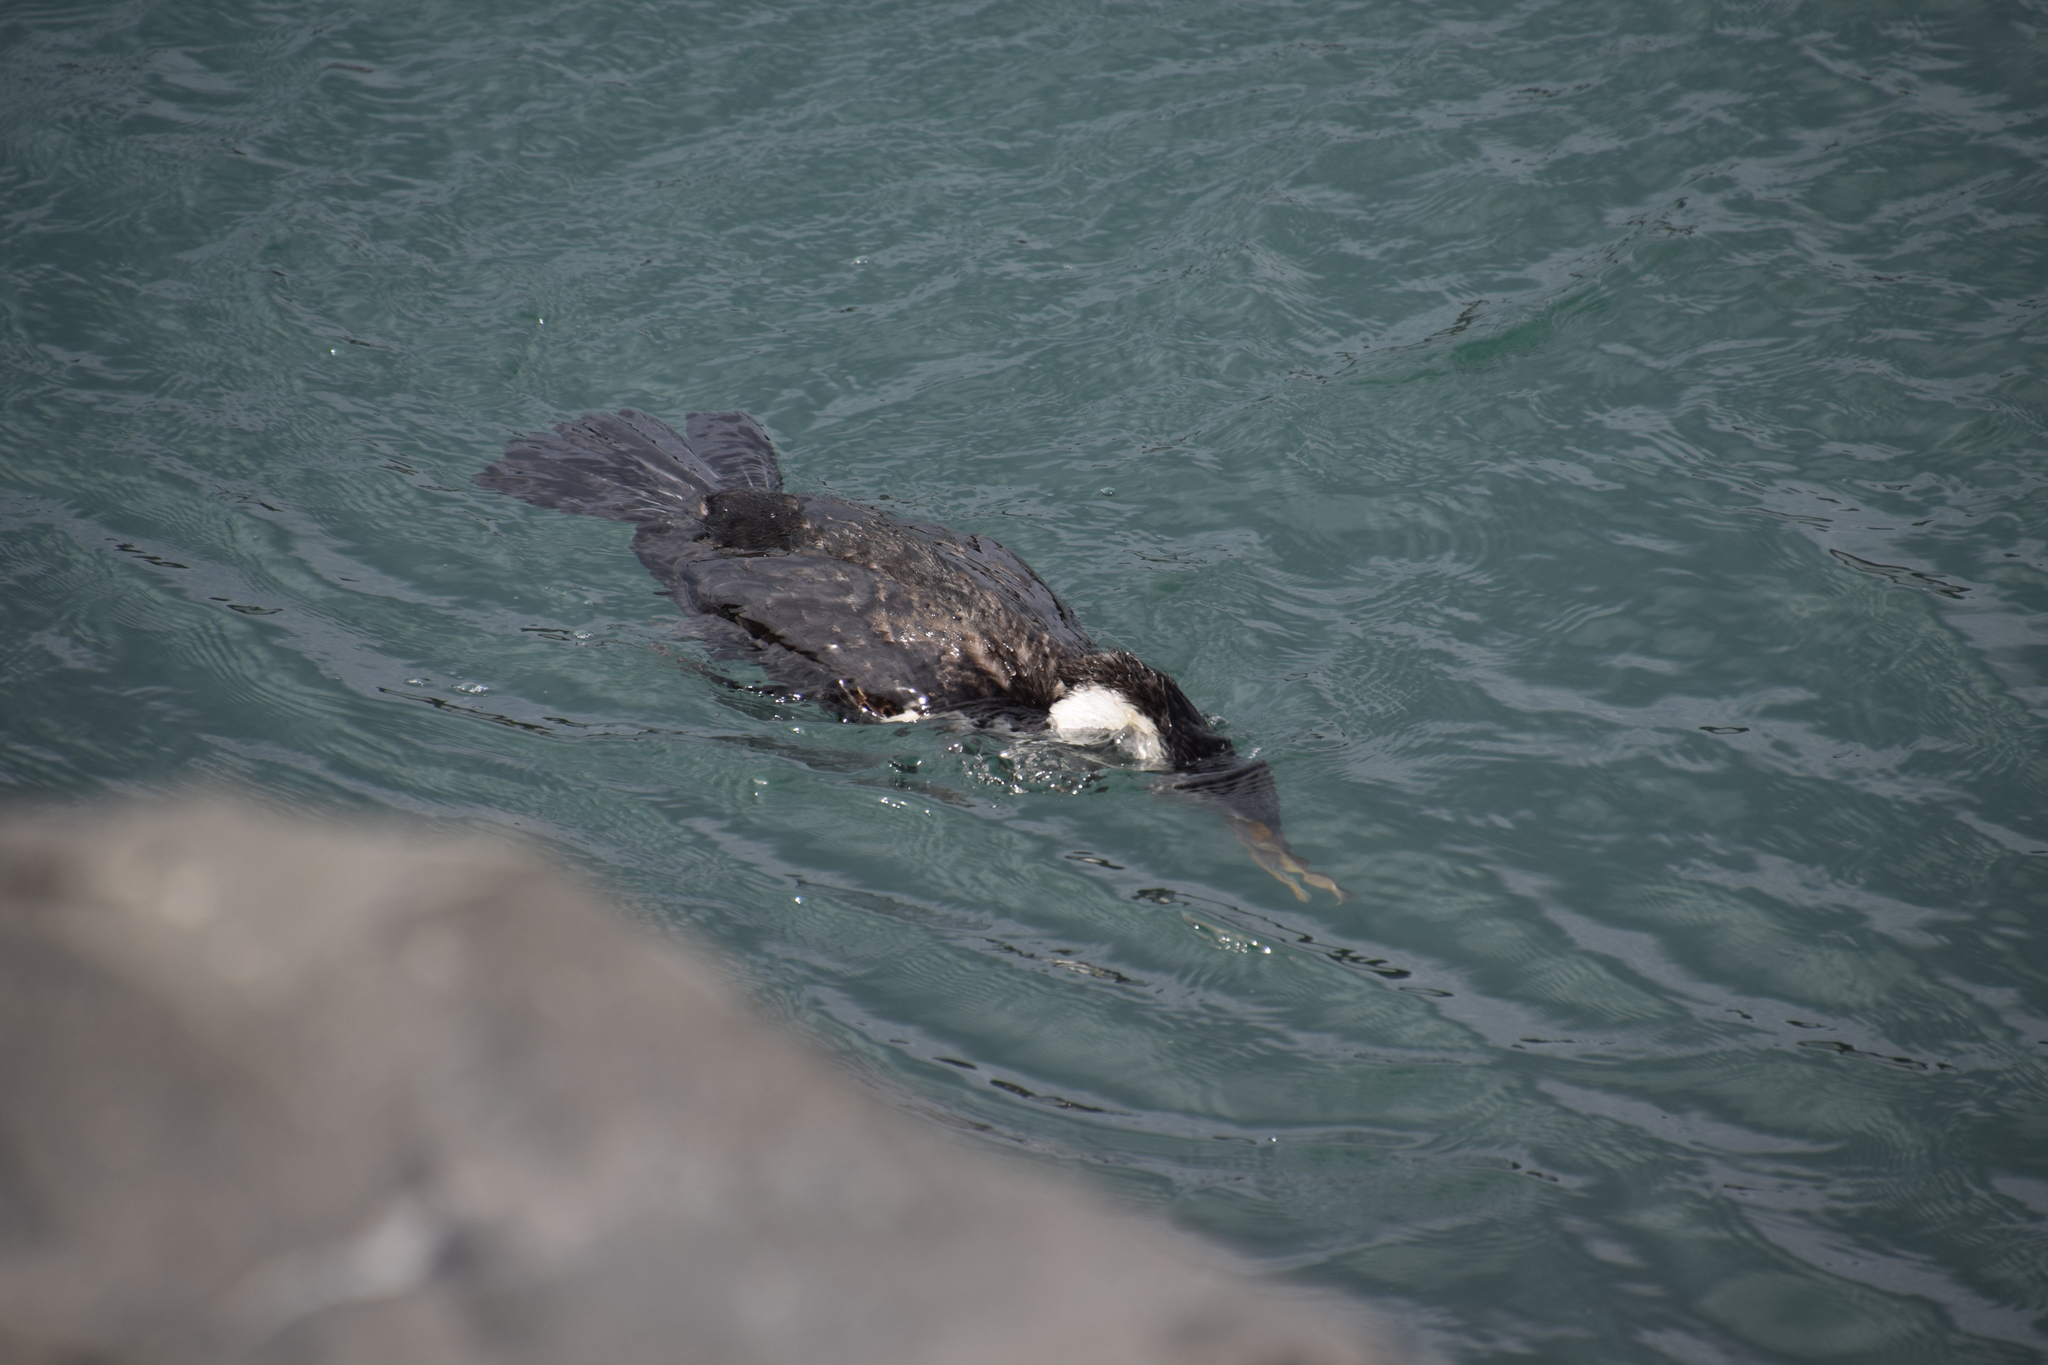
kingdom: Animalia
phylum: Chordata
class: Aves
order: Suliformes
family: Phalacrocoracidae
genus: Phalacrocorax
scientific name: Phalacrocorax varius
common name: Pied cormorant
